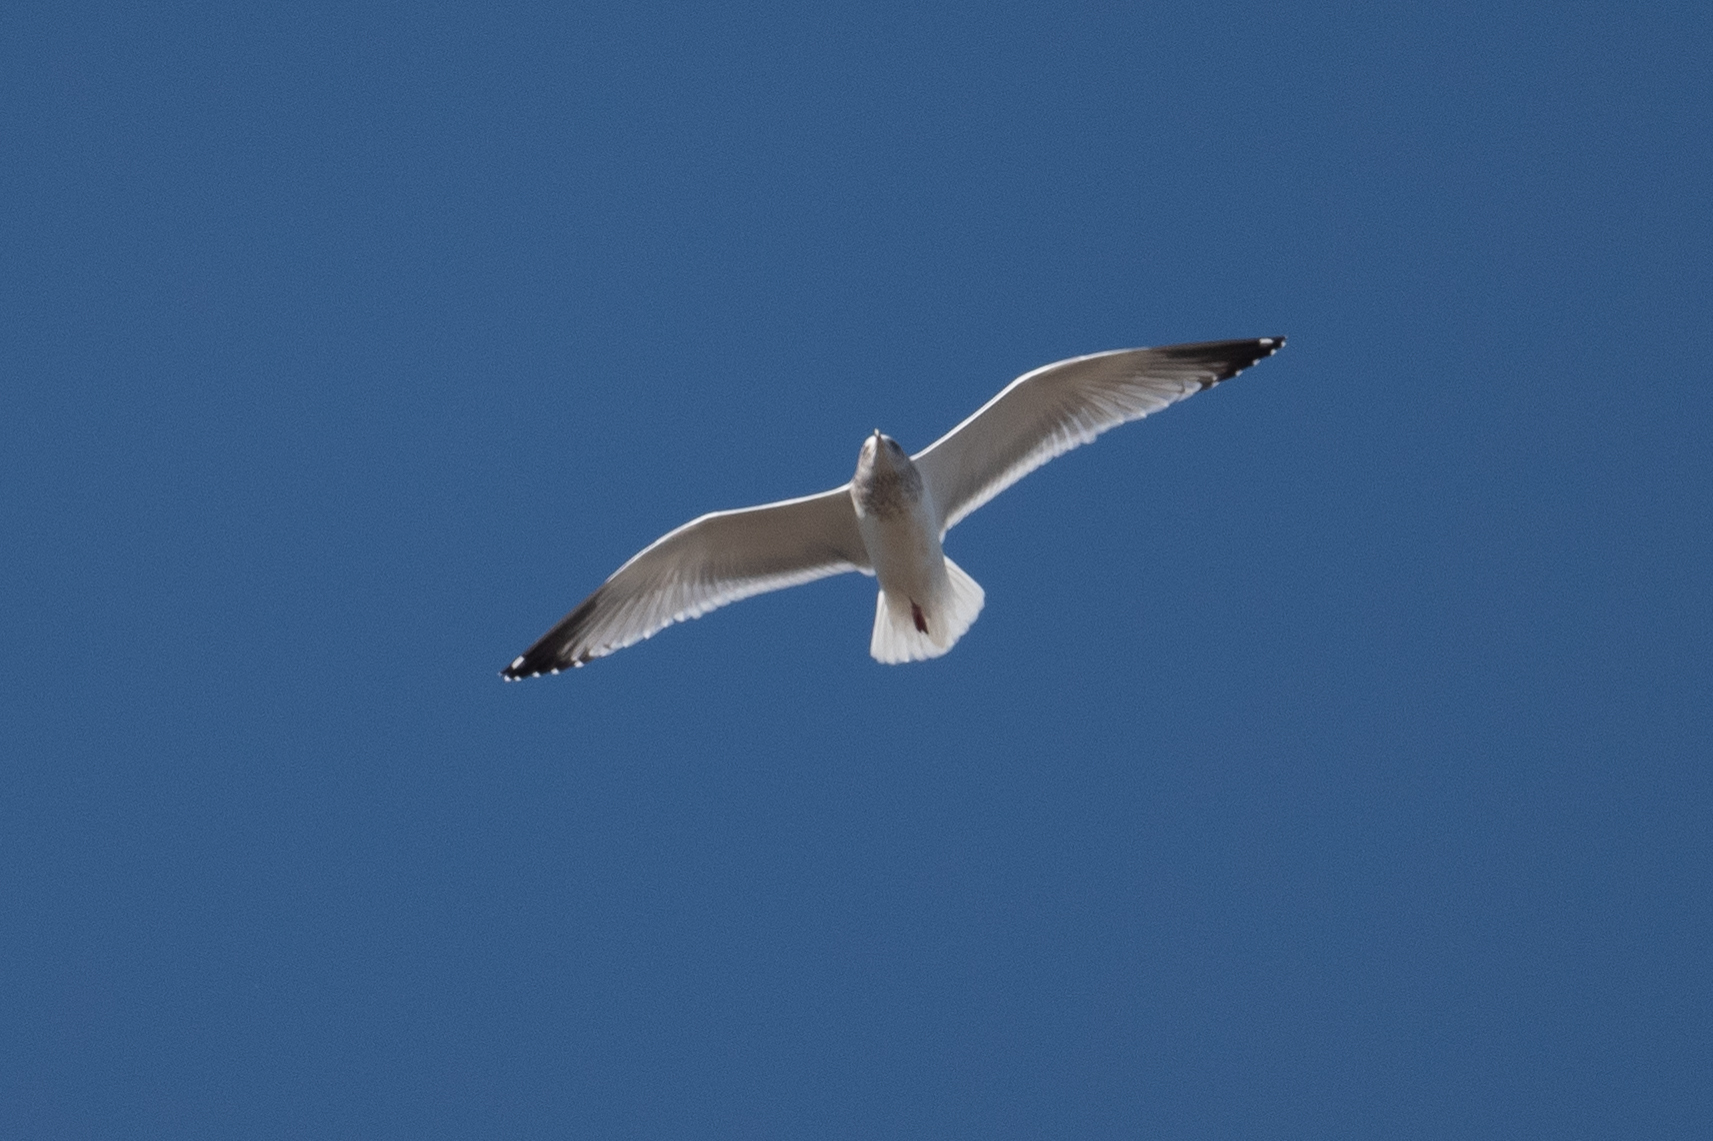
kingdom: Animalia
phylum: Chordata
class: Aves
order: Charadriiformes
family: Laridae
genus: Larus
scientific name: Larus argentatus
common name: Herring gull
